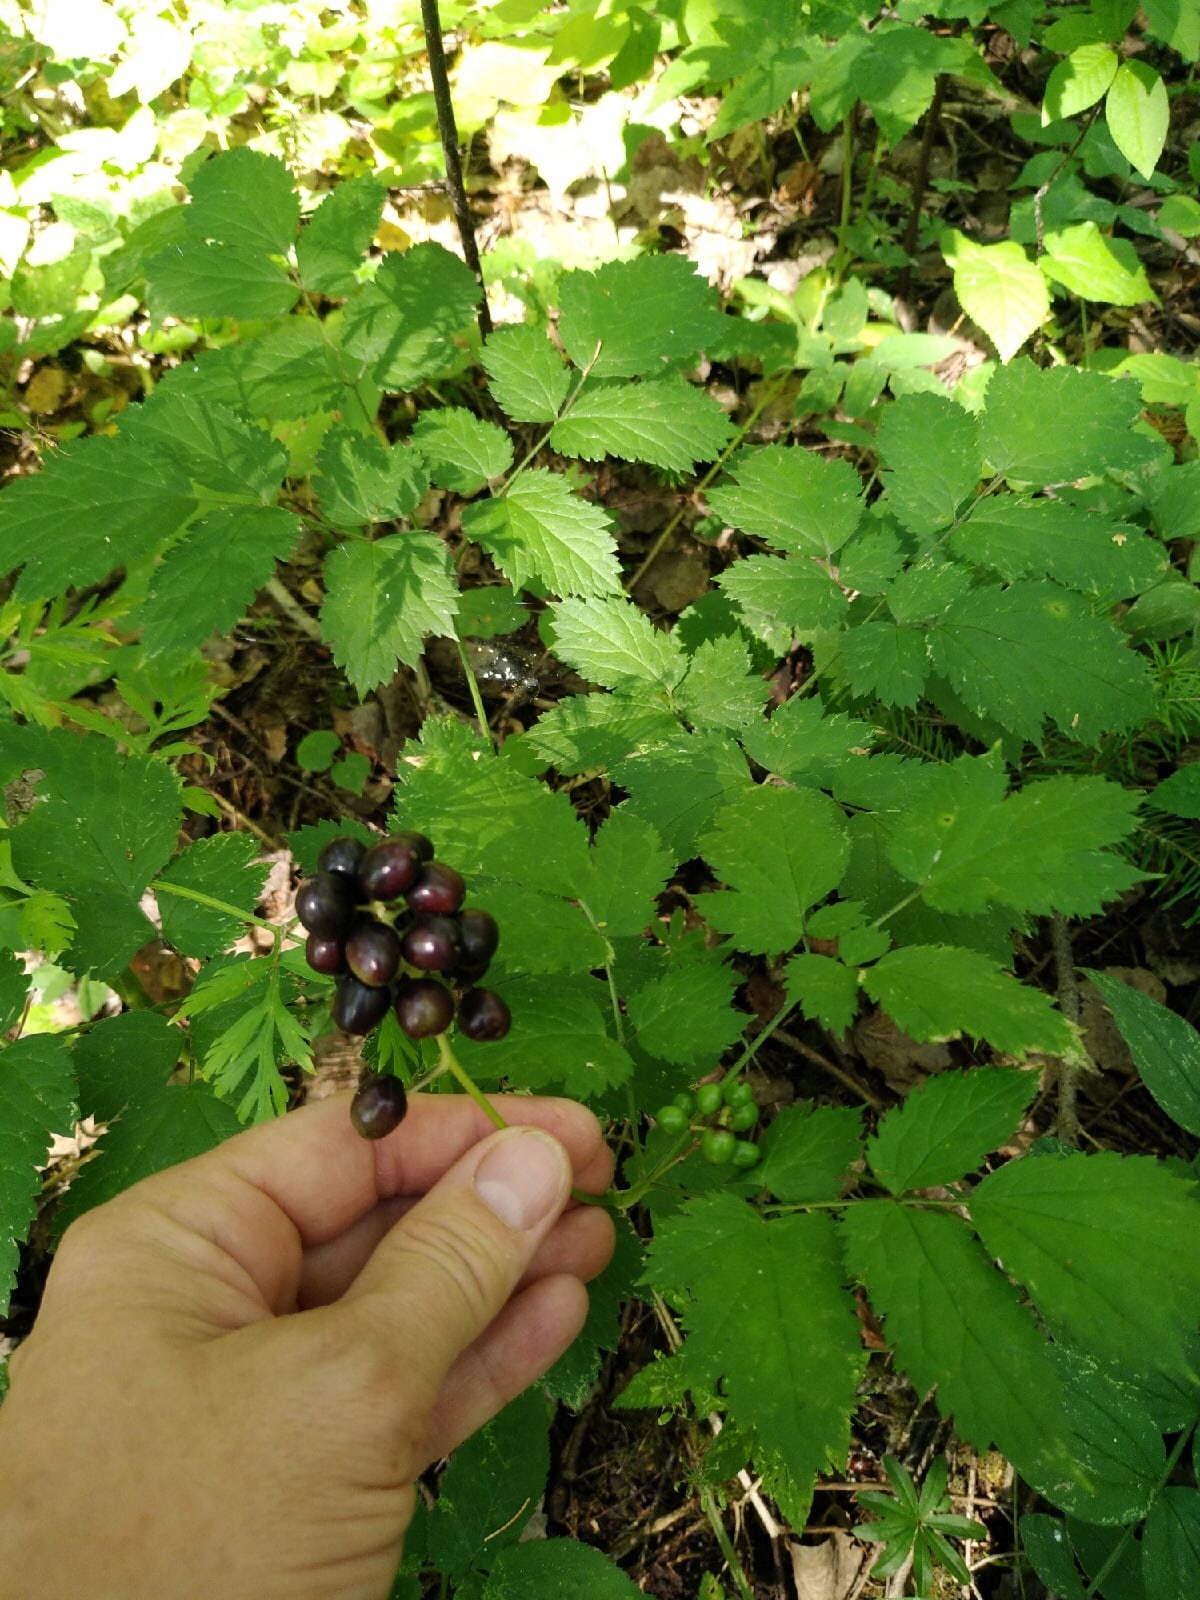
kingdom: Plantae
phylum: Tracheophyta
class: Magnoliopsida
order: Ranunculales
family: Ranunculaceae
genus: Actaea
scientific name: Actaea spicata
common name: Baneberry
